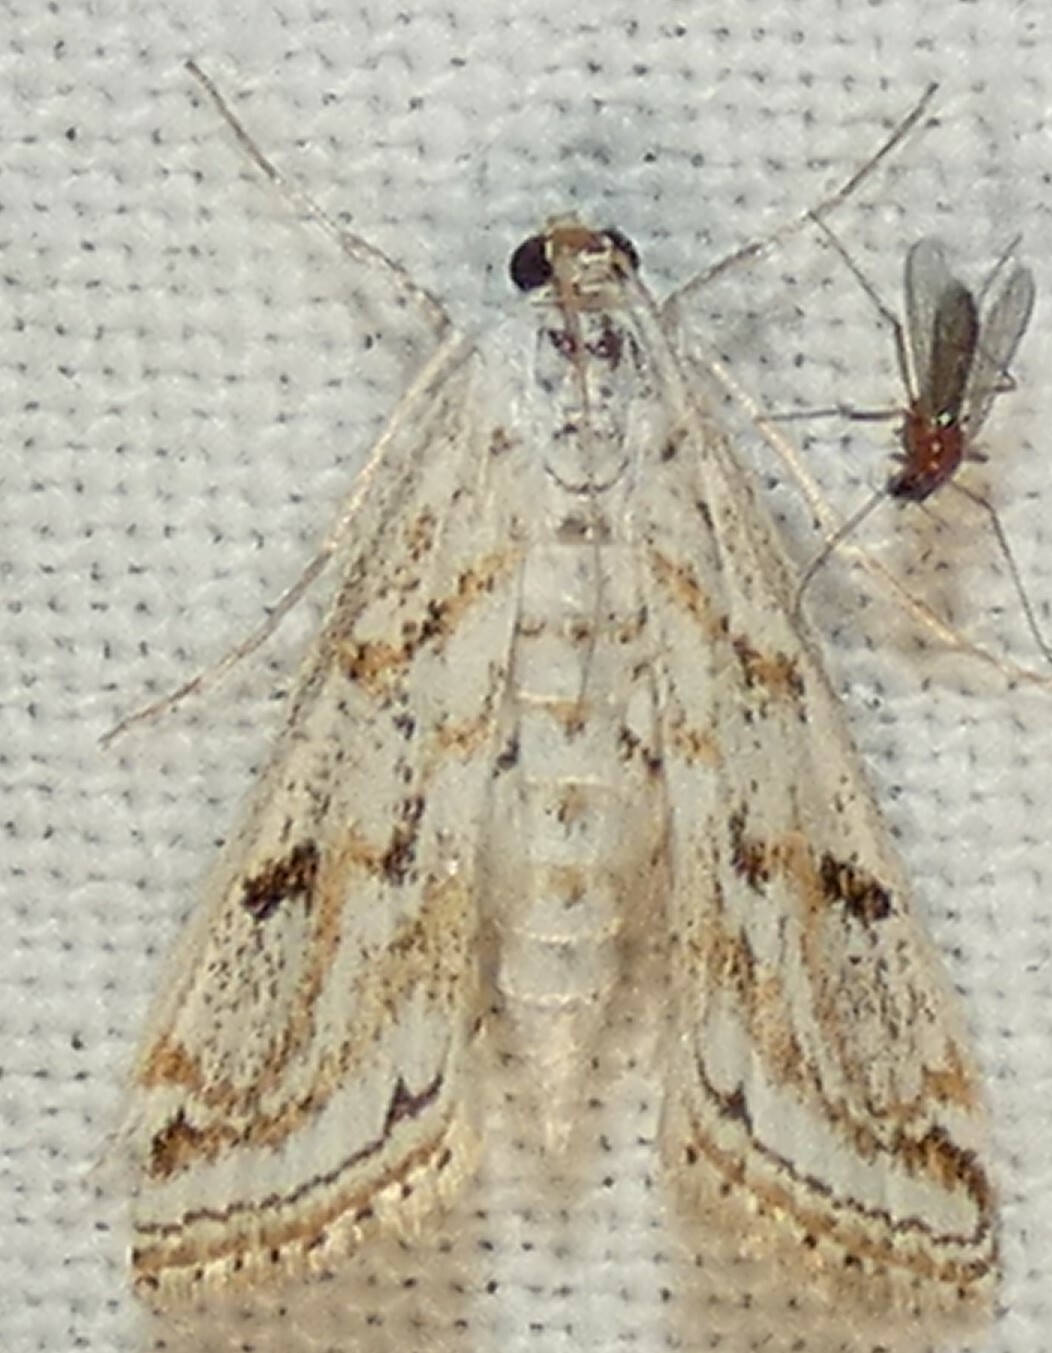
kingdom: Animalia
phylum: Arthropoda
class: Insecta
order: Lepidoptera
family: Crambidae
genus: Parapoynx
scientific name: Parapoynx allionealis
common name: Bladderwort casemaker
